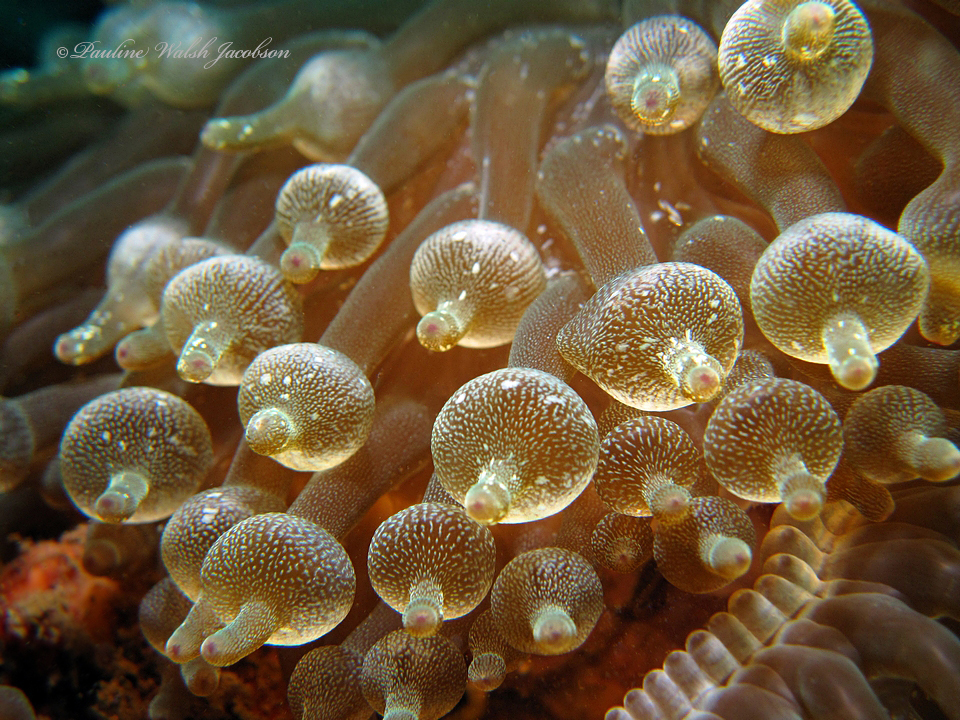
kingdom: Animalia
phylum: Cnidaria
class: Anthozoa
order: Actiniaria
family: Actiniidae
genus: Entacmaea
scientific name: Entacmaea quadricolor
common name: Bulb tentacle sea anemone
